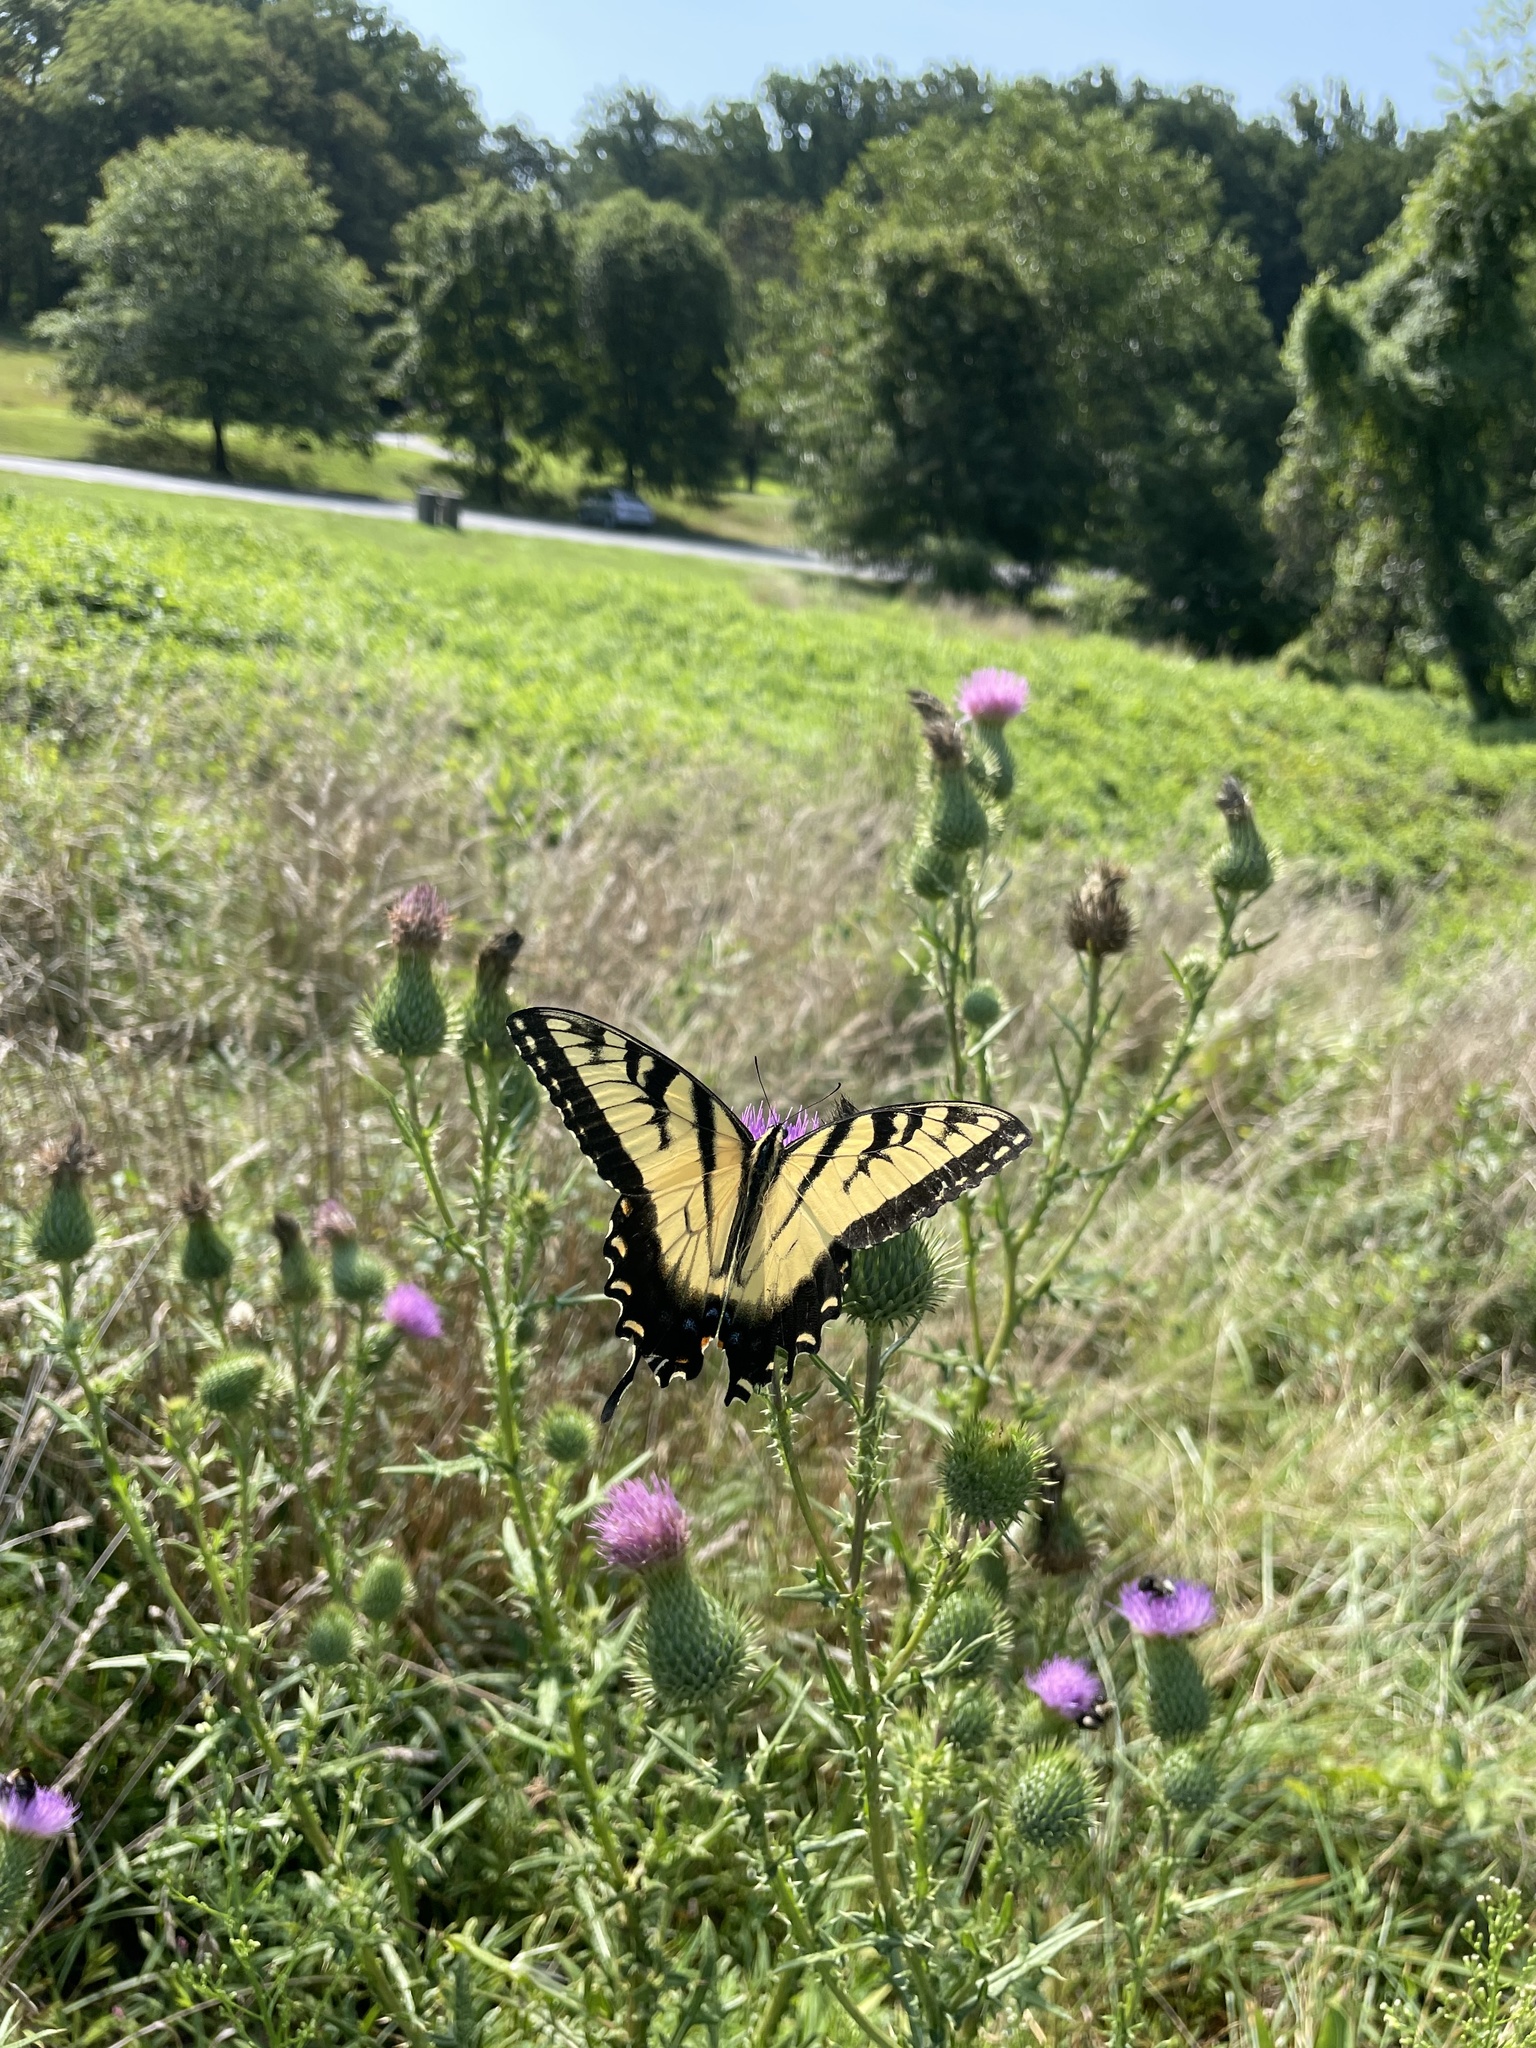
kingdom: Animalia
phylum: Arthropoda
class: Insecta
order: Lepidoptera
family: Papilionidae
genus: Papilio
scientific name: Papilio glaucus
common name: Tiger swallowtail
